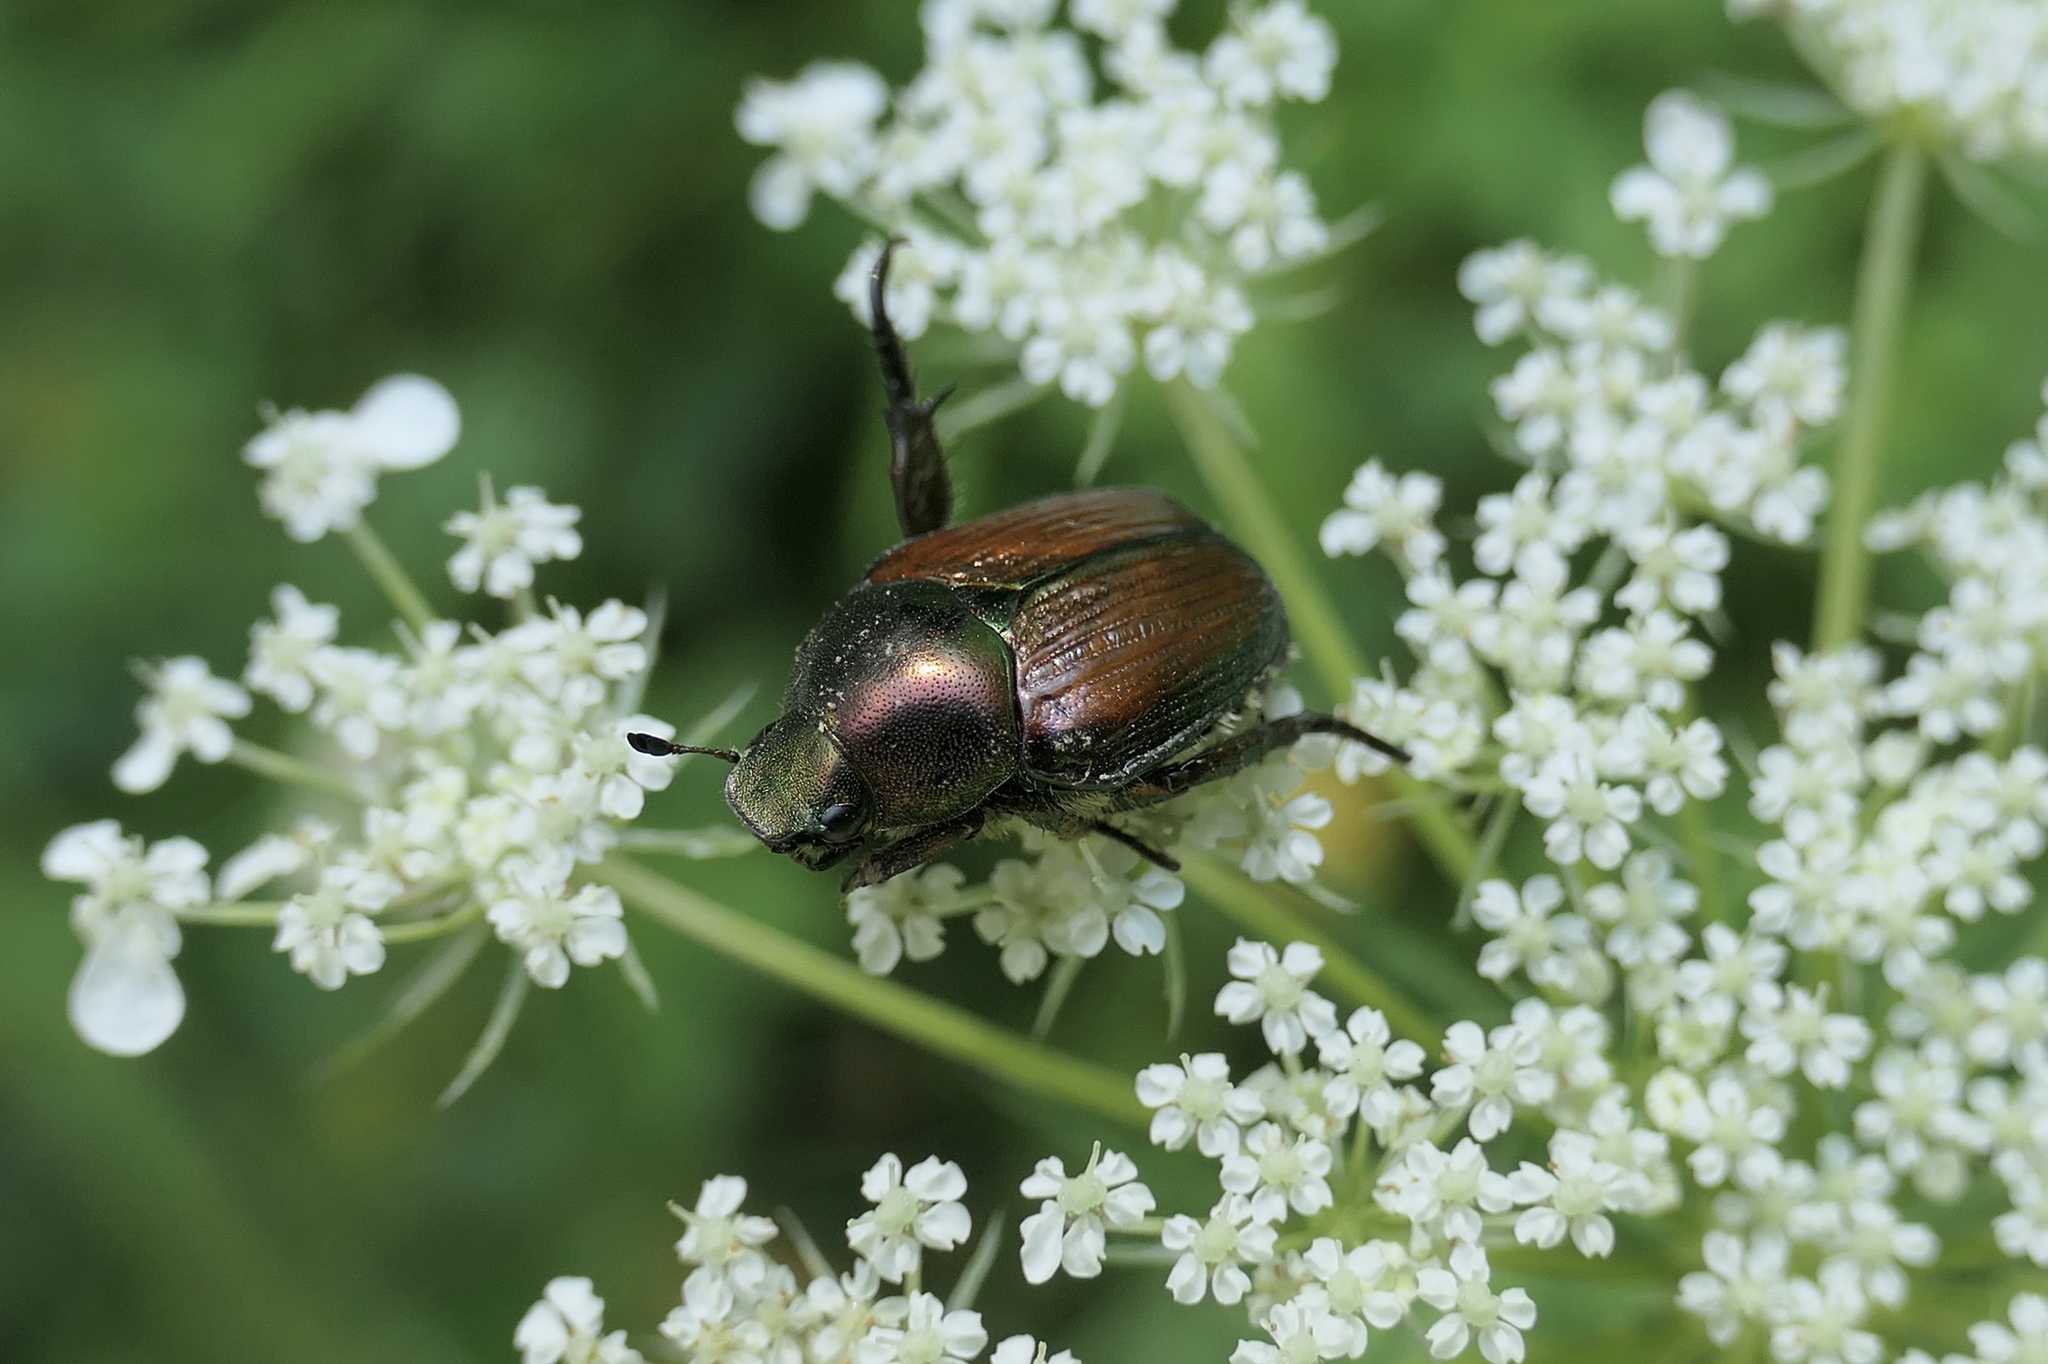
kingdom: Animalia
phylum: Arthropoda
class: Insecta
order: Coleoptera
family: Scarabaeidae
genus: Popillia
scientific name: Popillia japonica
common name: Japanese beetle
